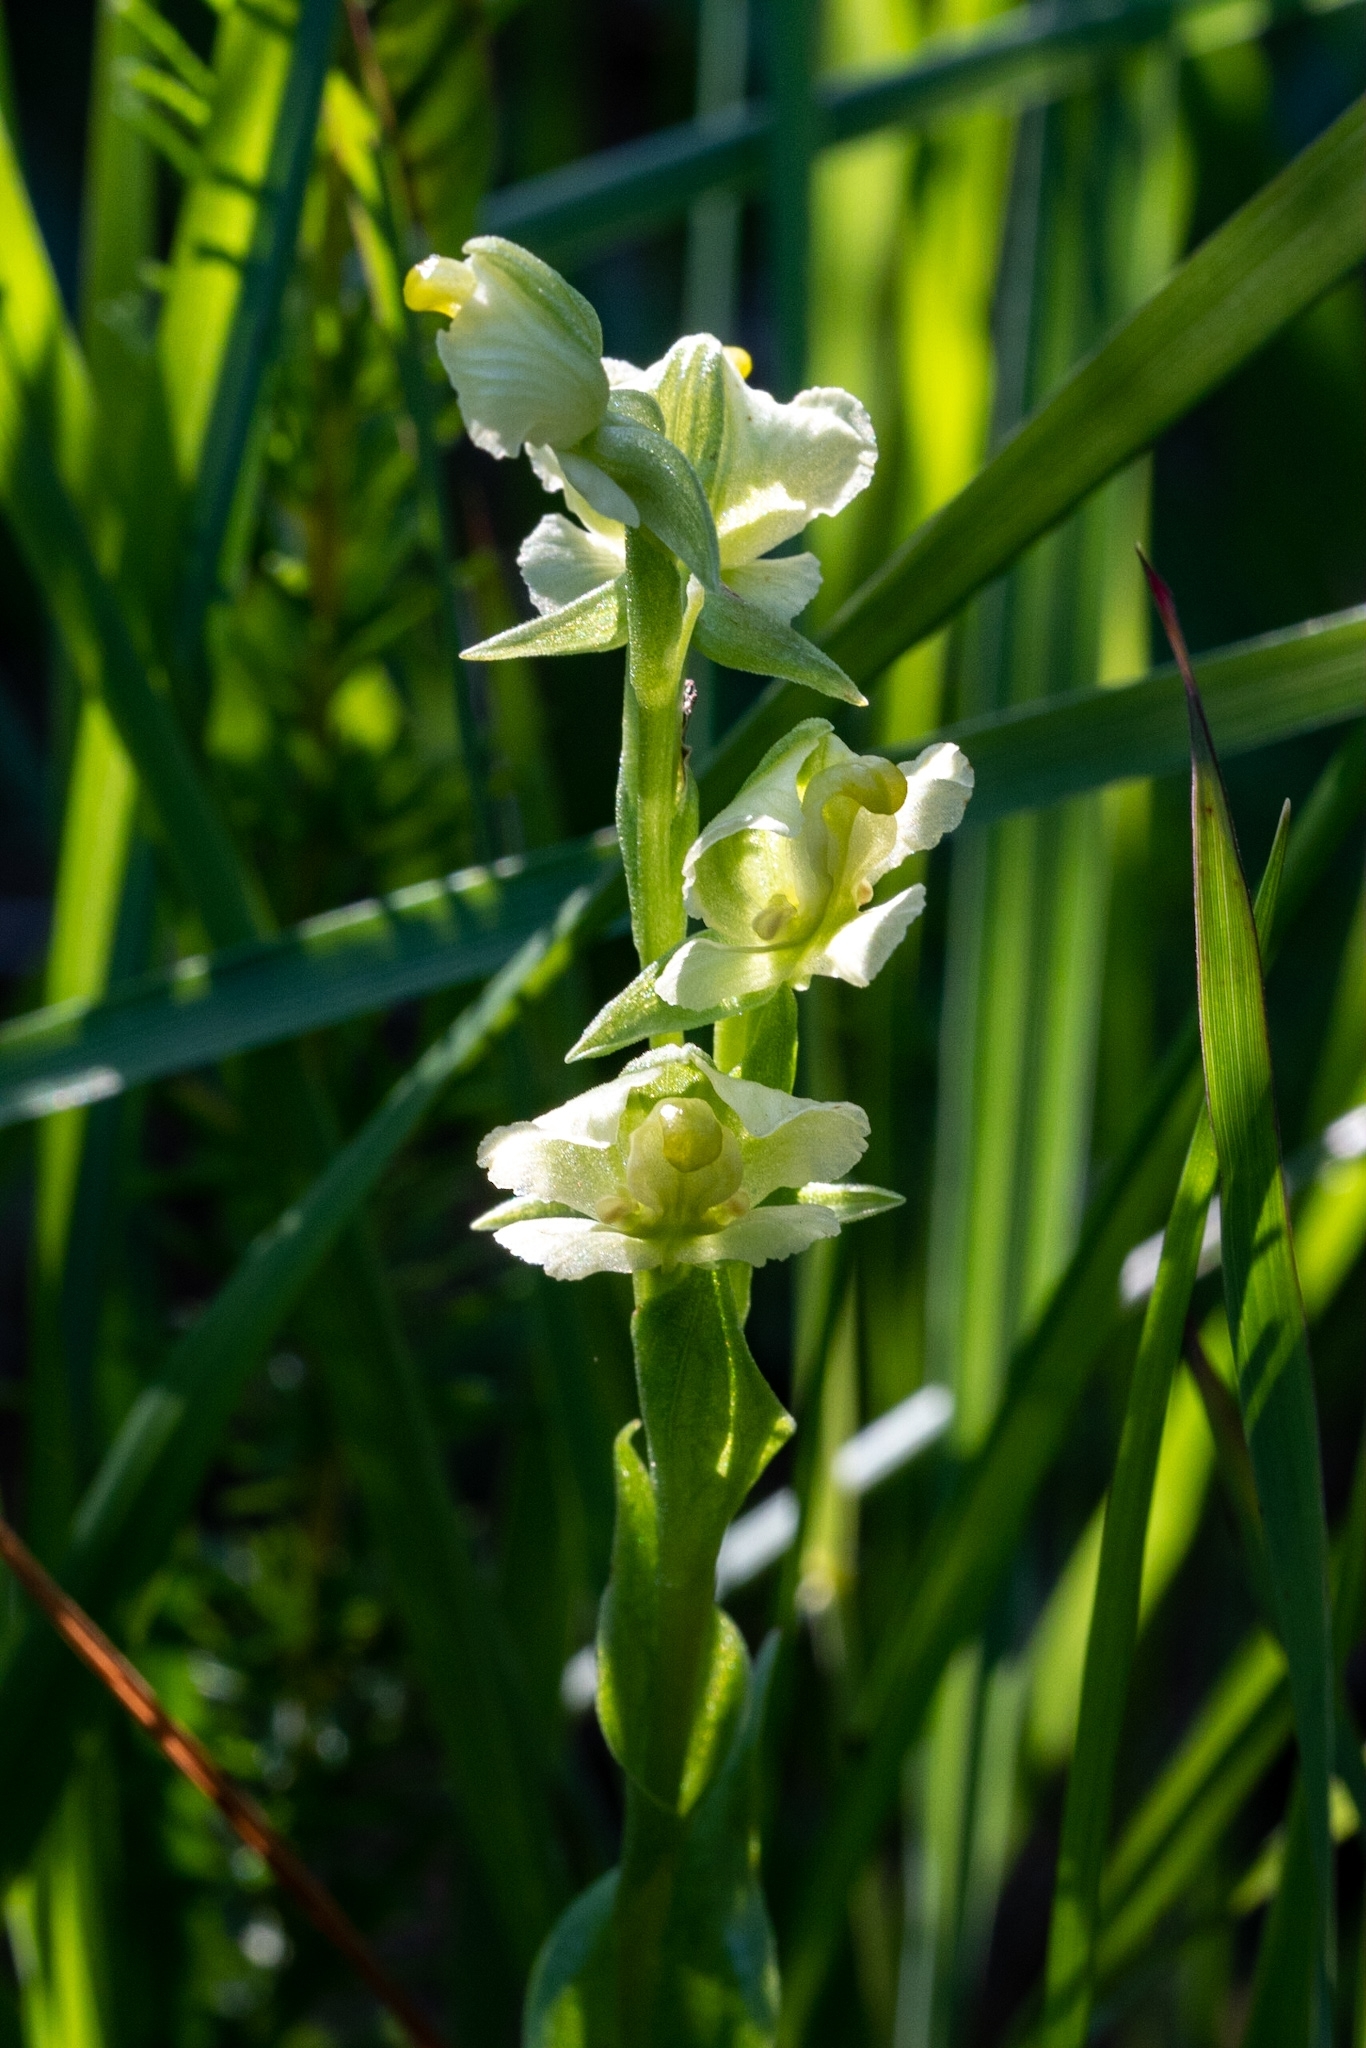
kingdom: Plantae
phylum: Tracheophyta
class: Liliopsida
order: Asparagales
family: Orchidaceae
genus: Pterygodium
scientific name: Pterygodium alatum
